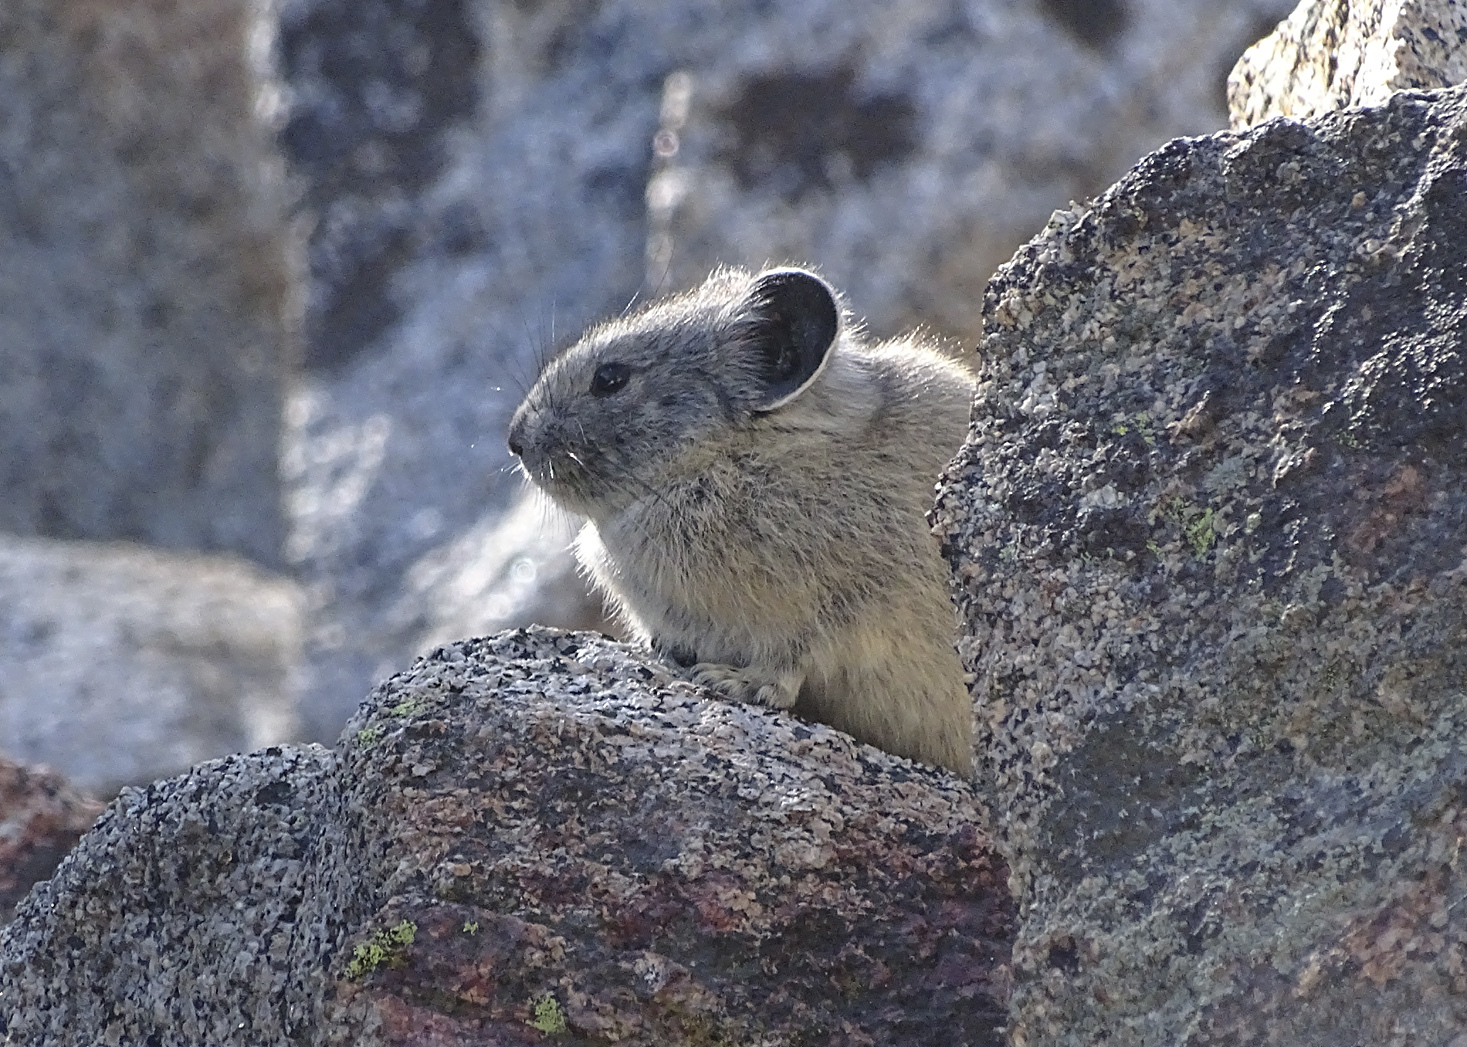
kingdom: Animalia
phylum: Chordata
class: Mammalia
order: Lagomorpha
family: Ochotonidae
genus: Ochotona
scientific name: Ochotona princeps
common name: American pika
